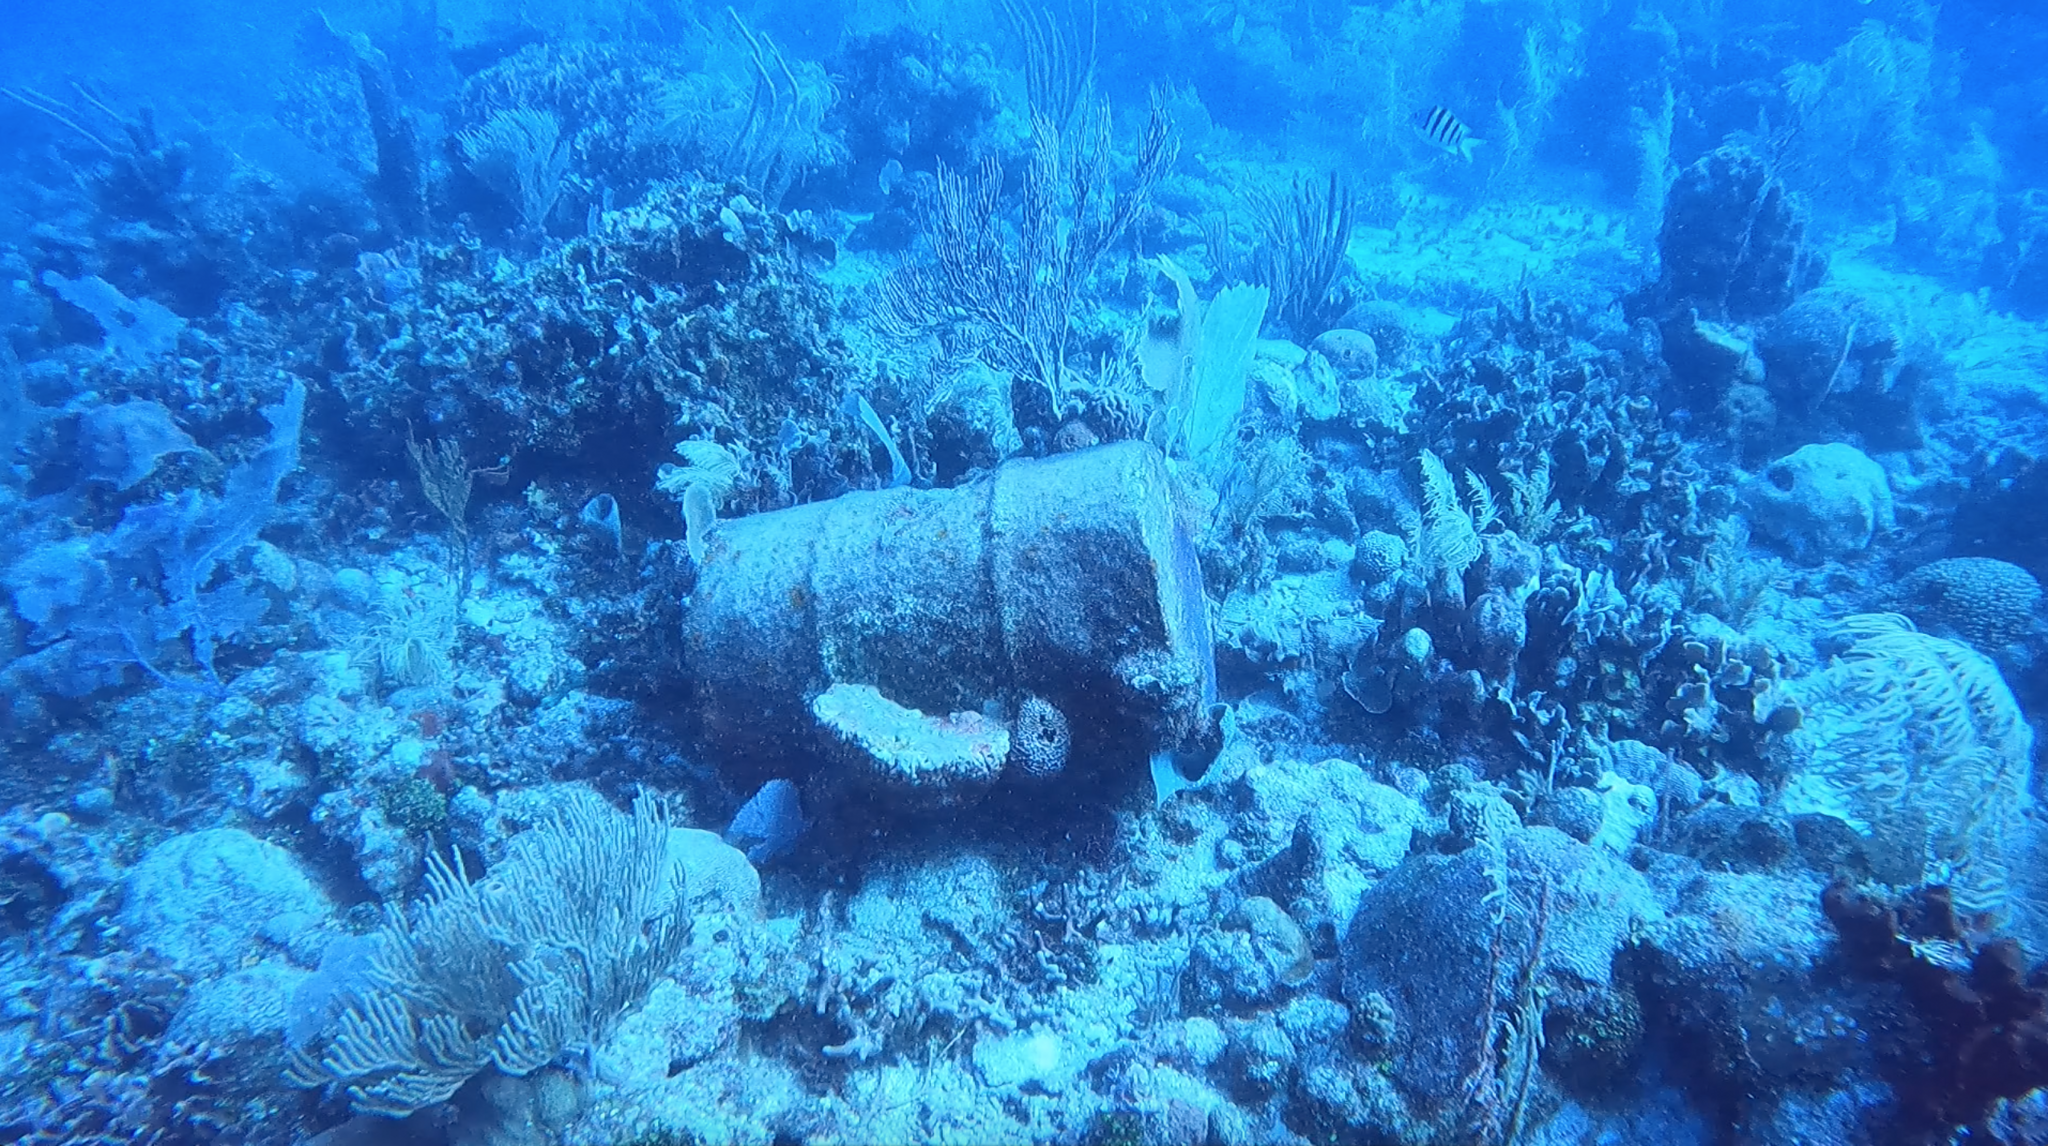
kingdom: Animalia
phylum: Cnidaria
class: Anthozoa
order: Malacalcyonacea
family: Gorgoniidae
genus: Gorgonia
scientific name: Gorgonia ventalina
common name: Common sea fan
